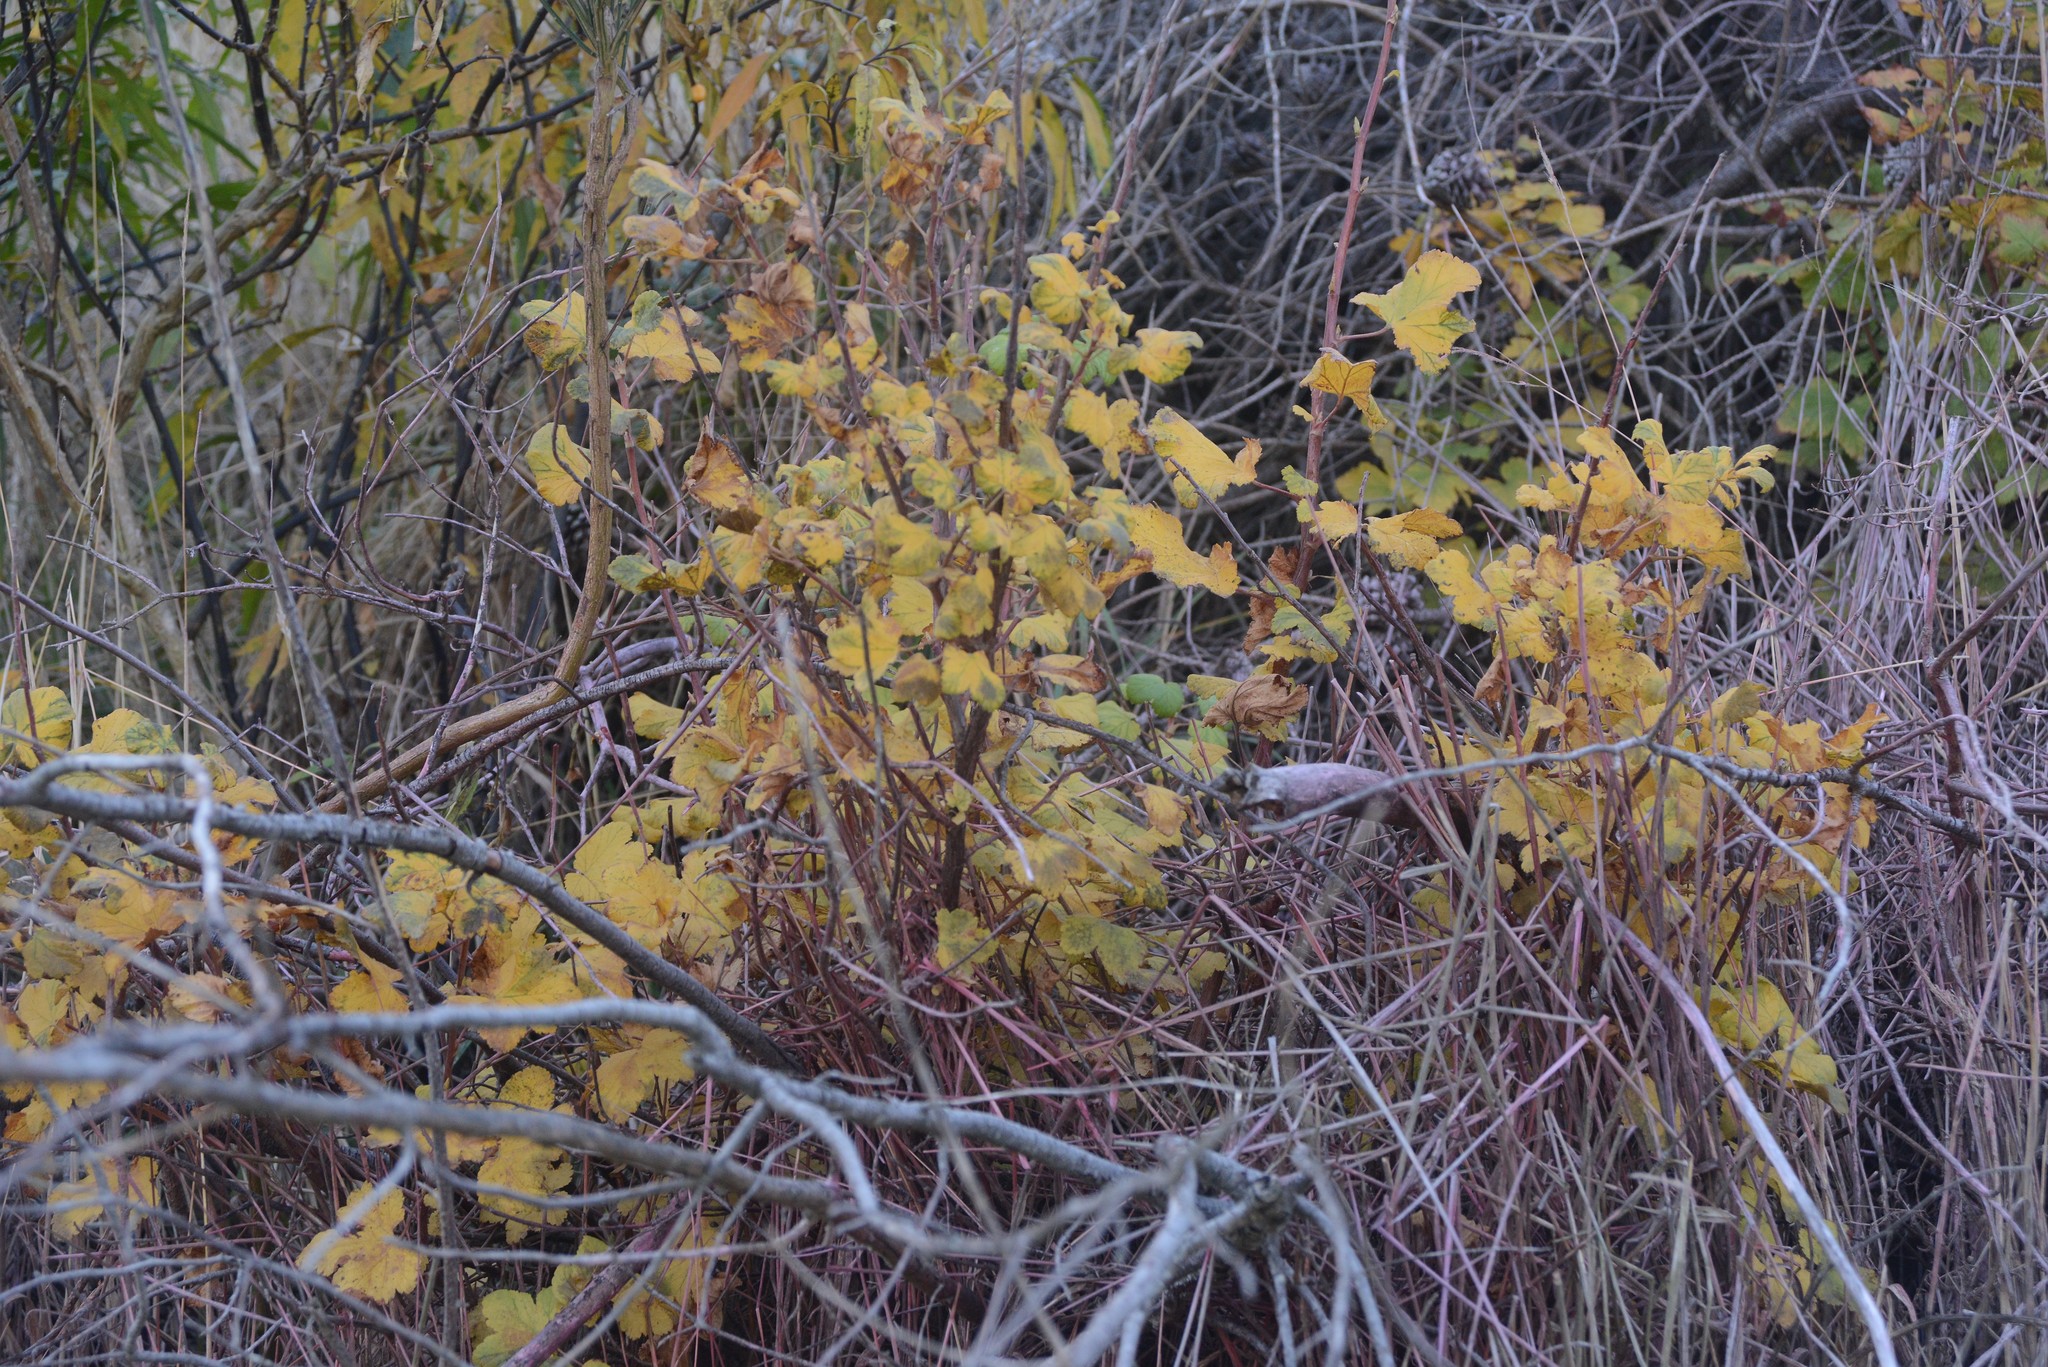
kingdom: Plantae
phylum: Tracheophyta
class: Magnoliopsida
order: Saxifragales
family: Grossulariaceae
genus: Ribes
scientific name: Ribes sanguineum
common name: Flowering currant
